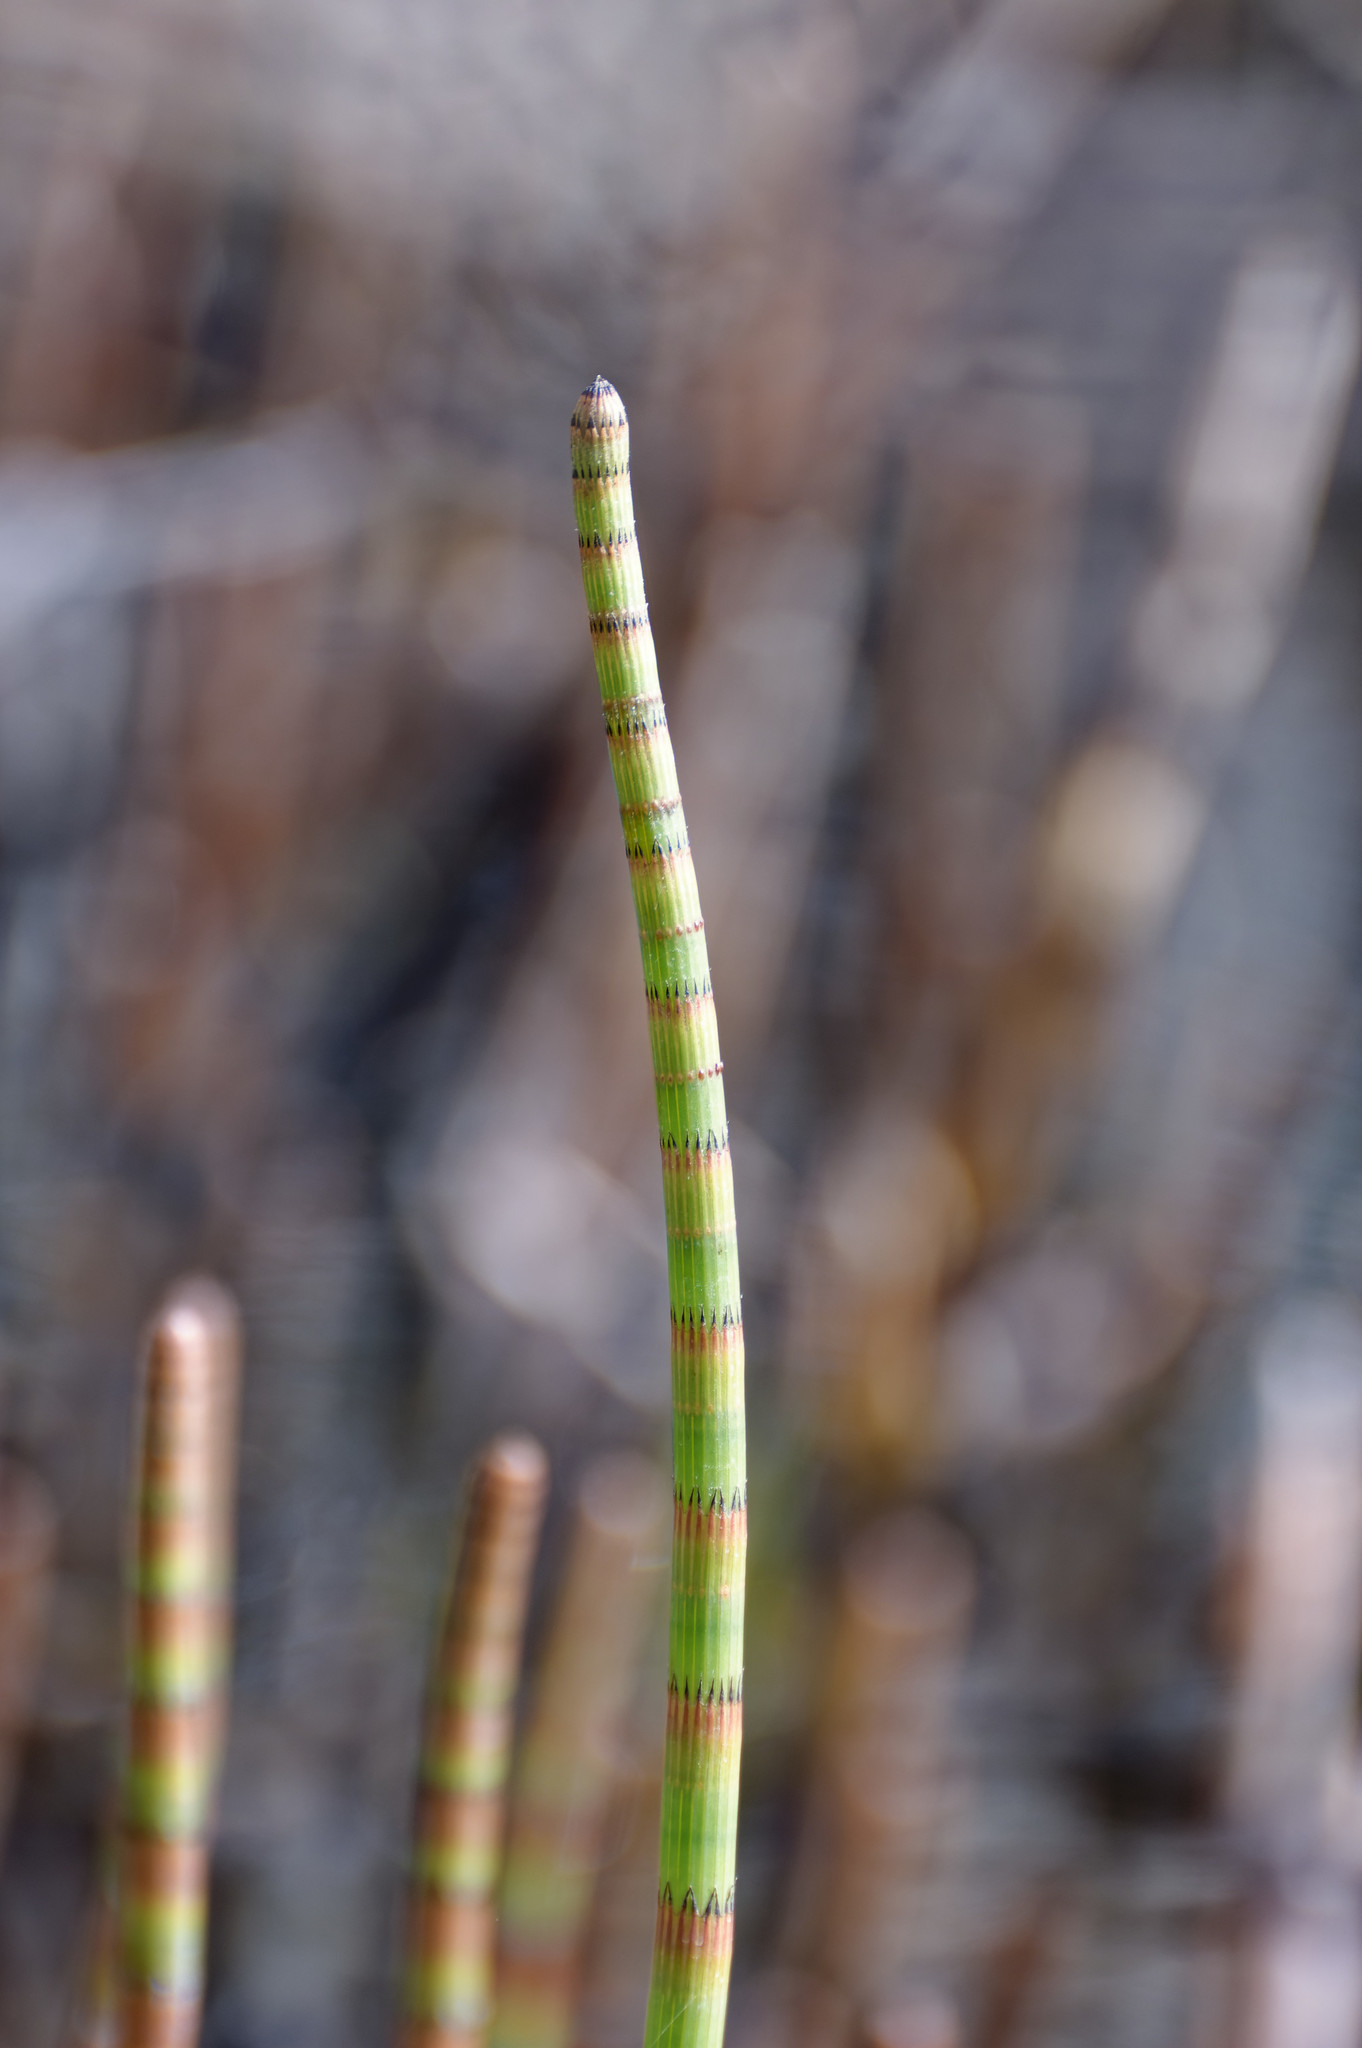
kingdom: Plantae
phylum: Tracheophyta
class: Polypodiopsida
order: Equisetales
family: Equisetaceae
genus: Equisetum
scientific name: Equisetum fluviatile
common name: Water horsetail
